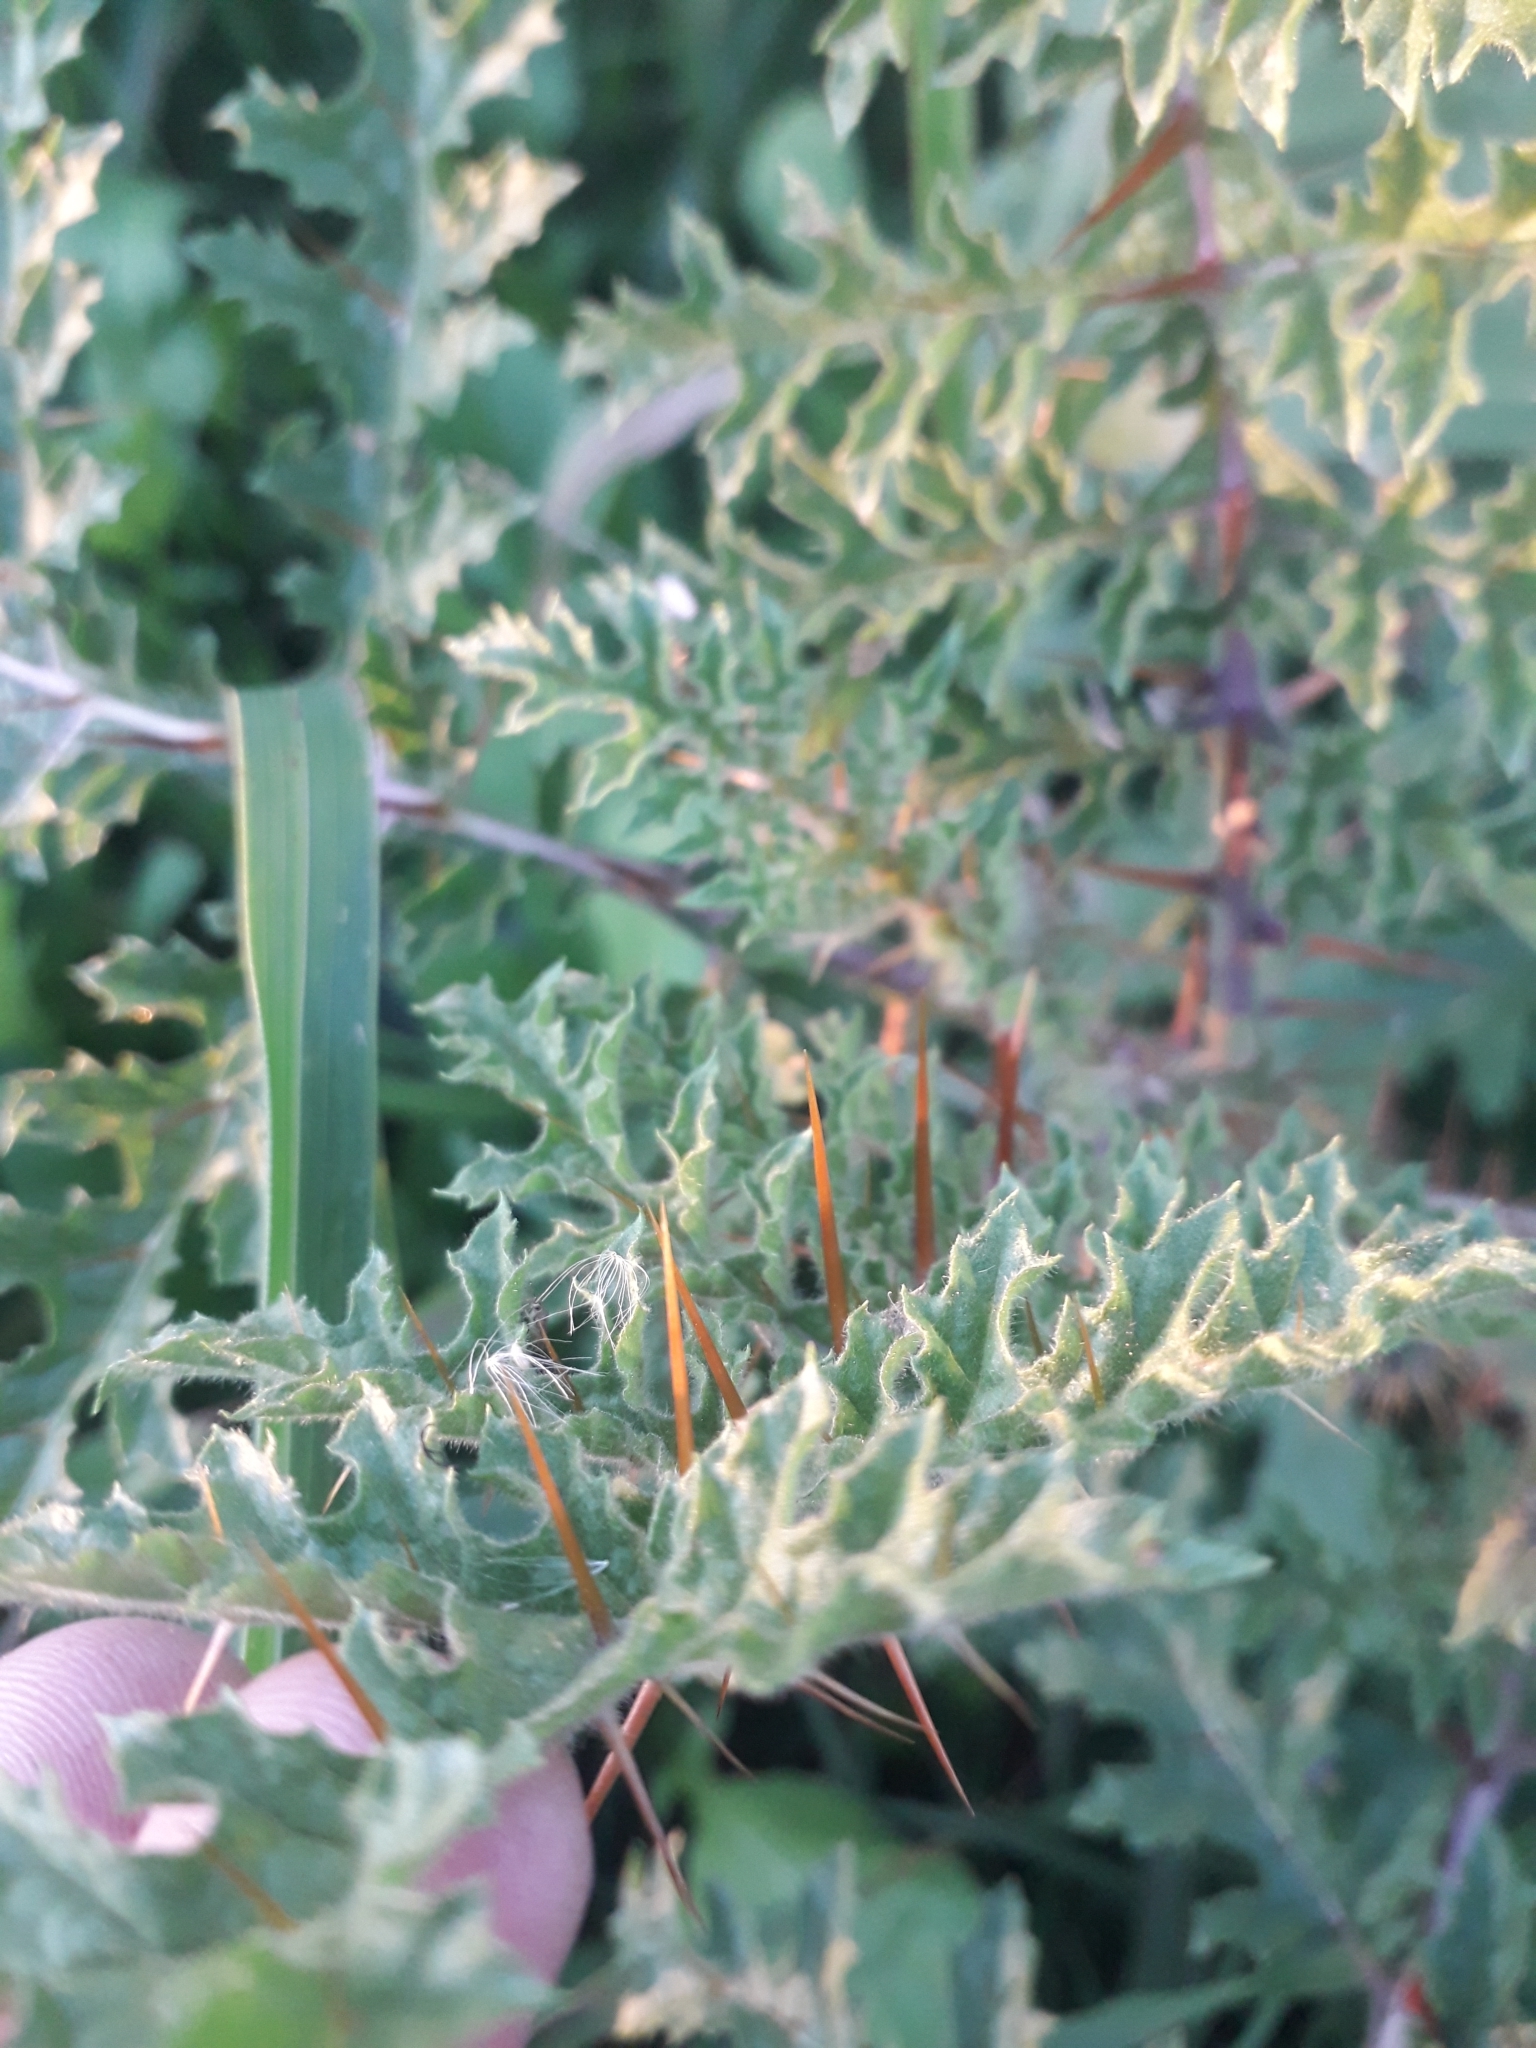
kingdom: Plantae
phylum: Tracheophyta
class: Magnoliopsida
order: Solanales
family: Solanaceae
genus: Solanum
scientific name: Solanum sisymbriifolium
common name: Red buffalo-bur
